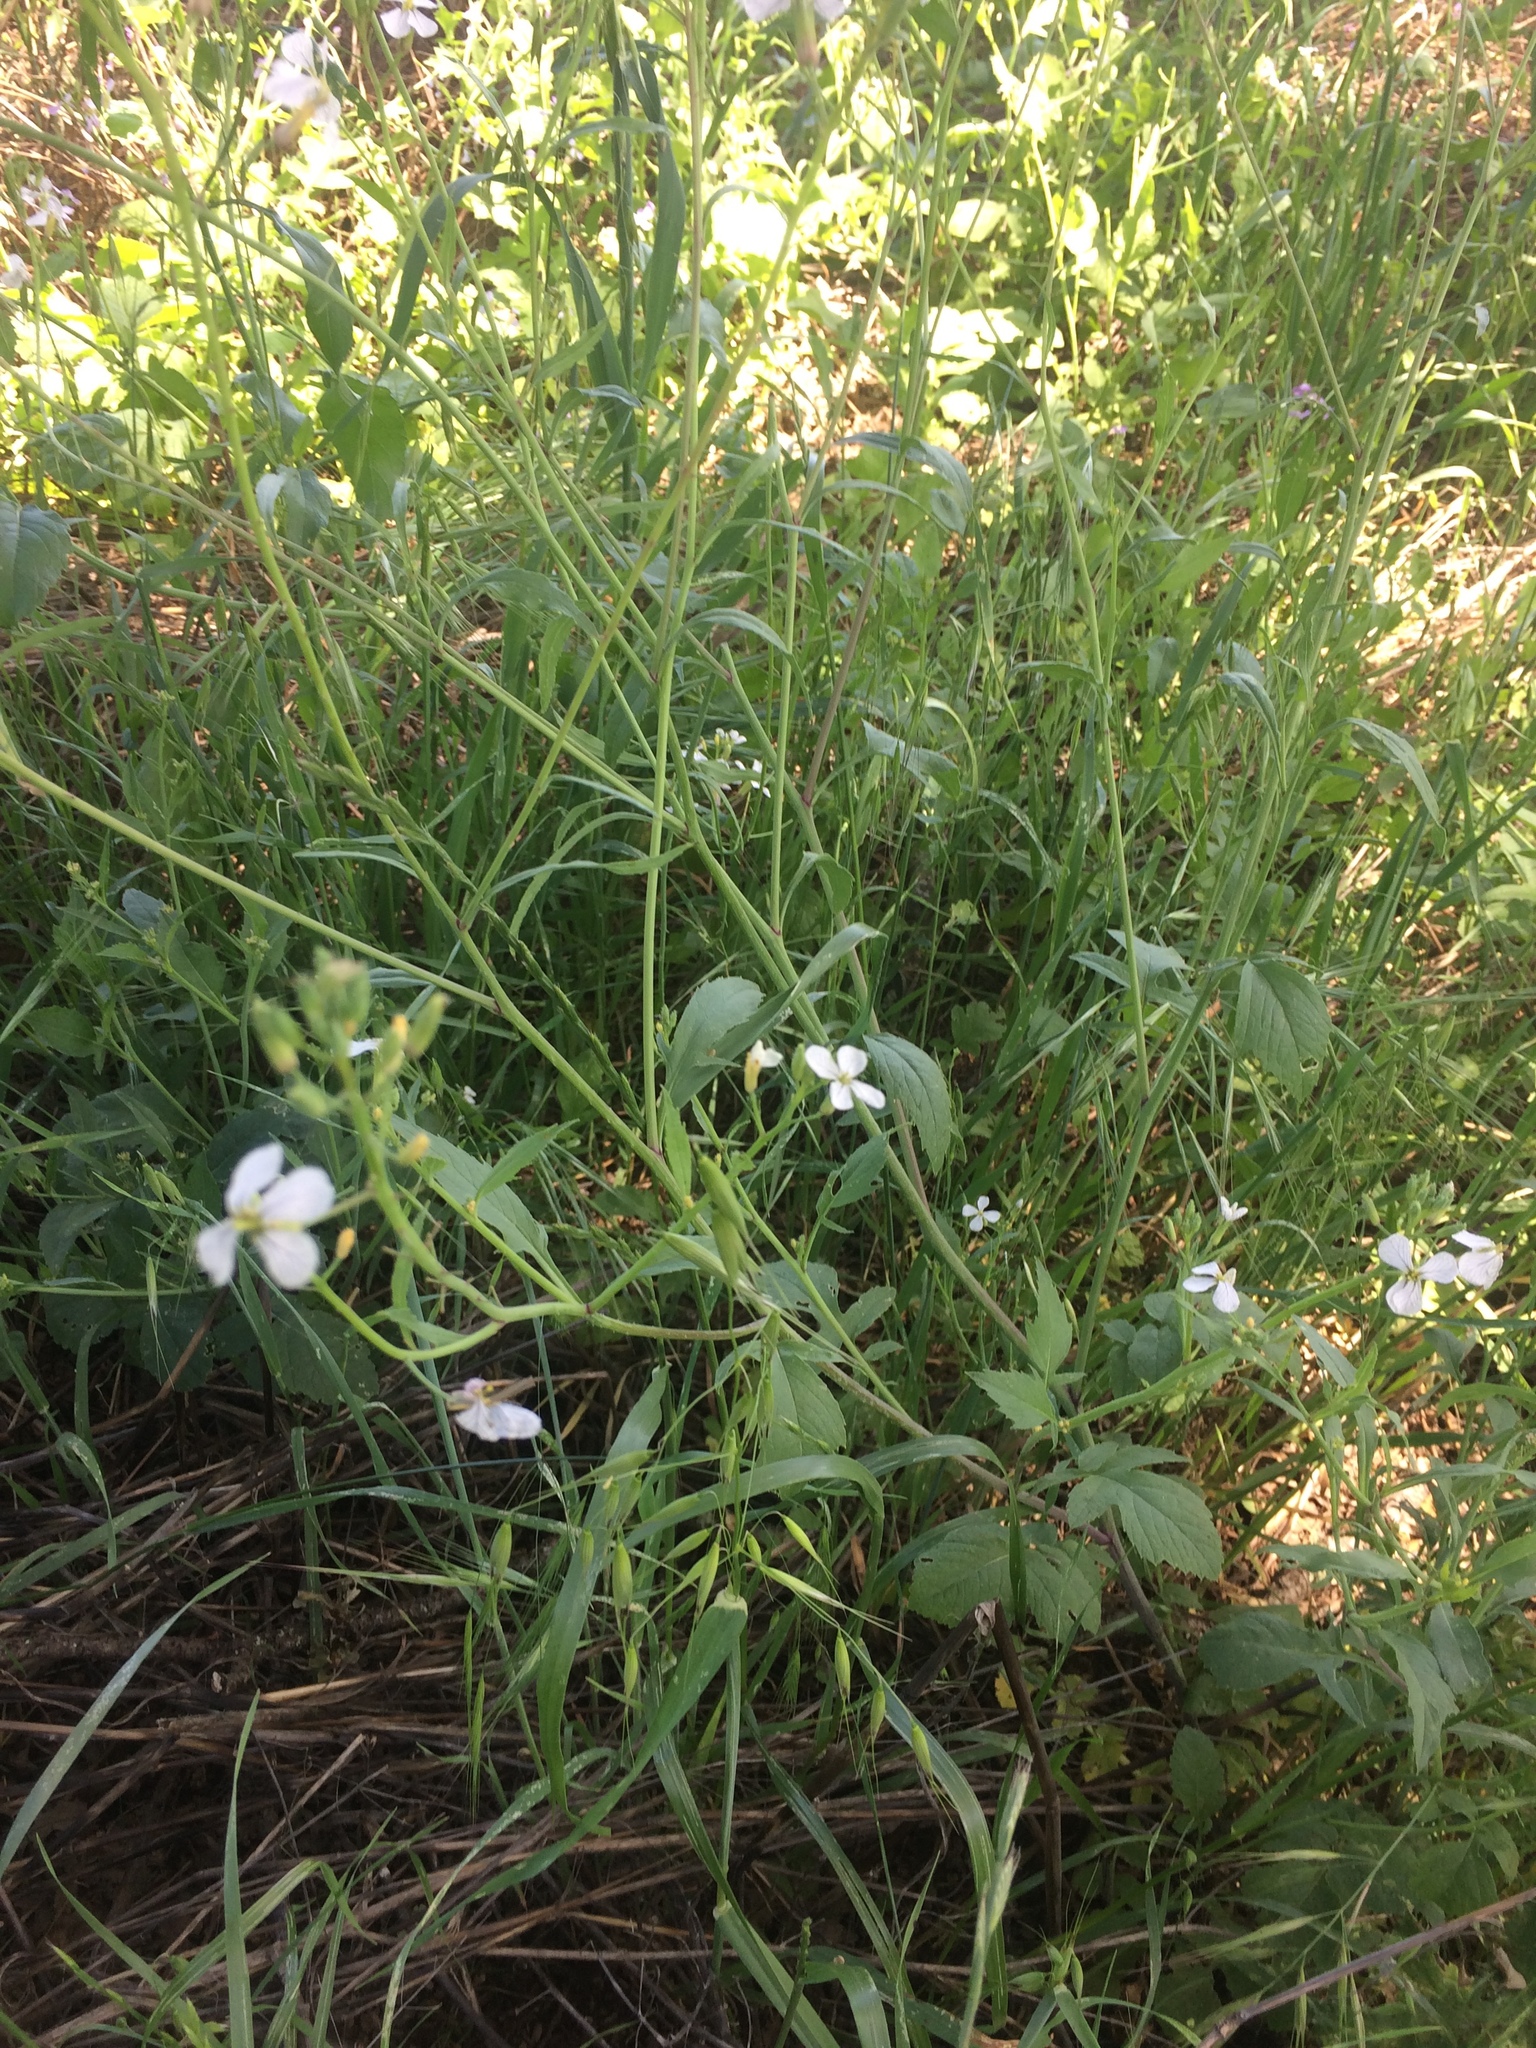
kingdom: Plantae
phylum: Tracheophyta
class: Magnoliopsida
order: Brassicales
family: Brassicaceae
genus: Raphanus
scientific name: Raphanus sativus
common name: Cultivated radish
